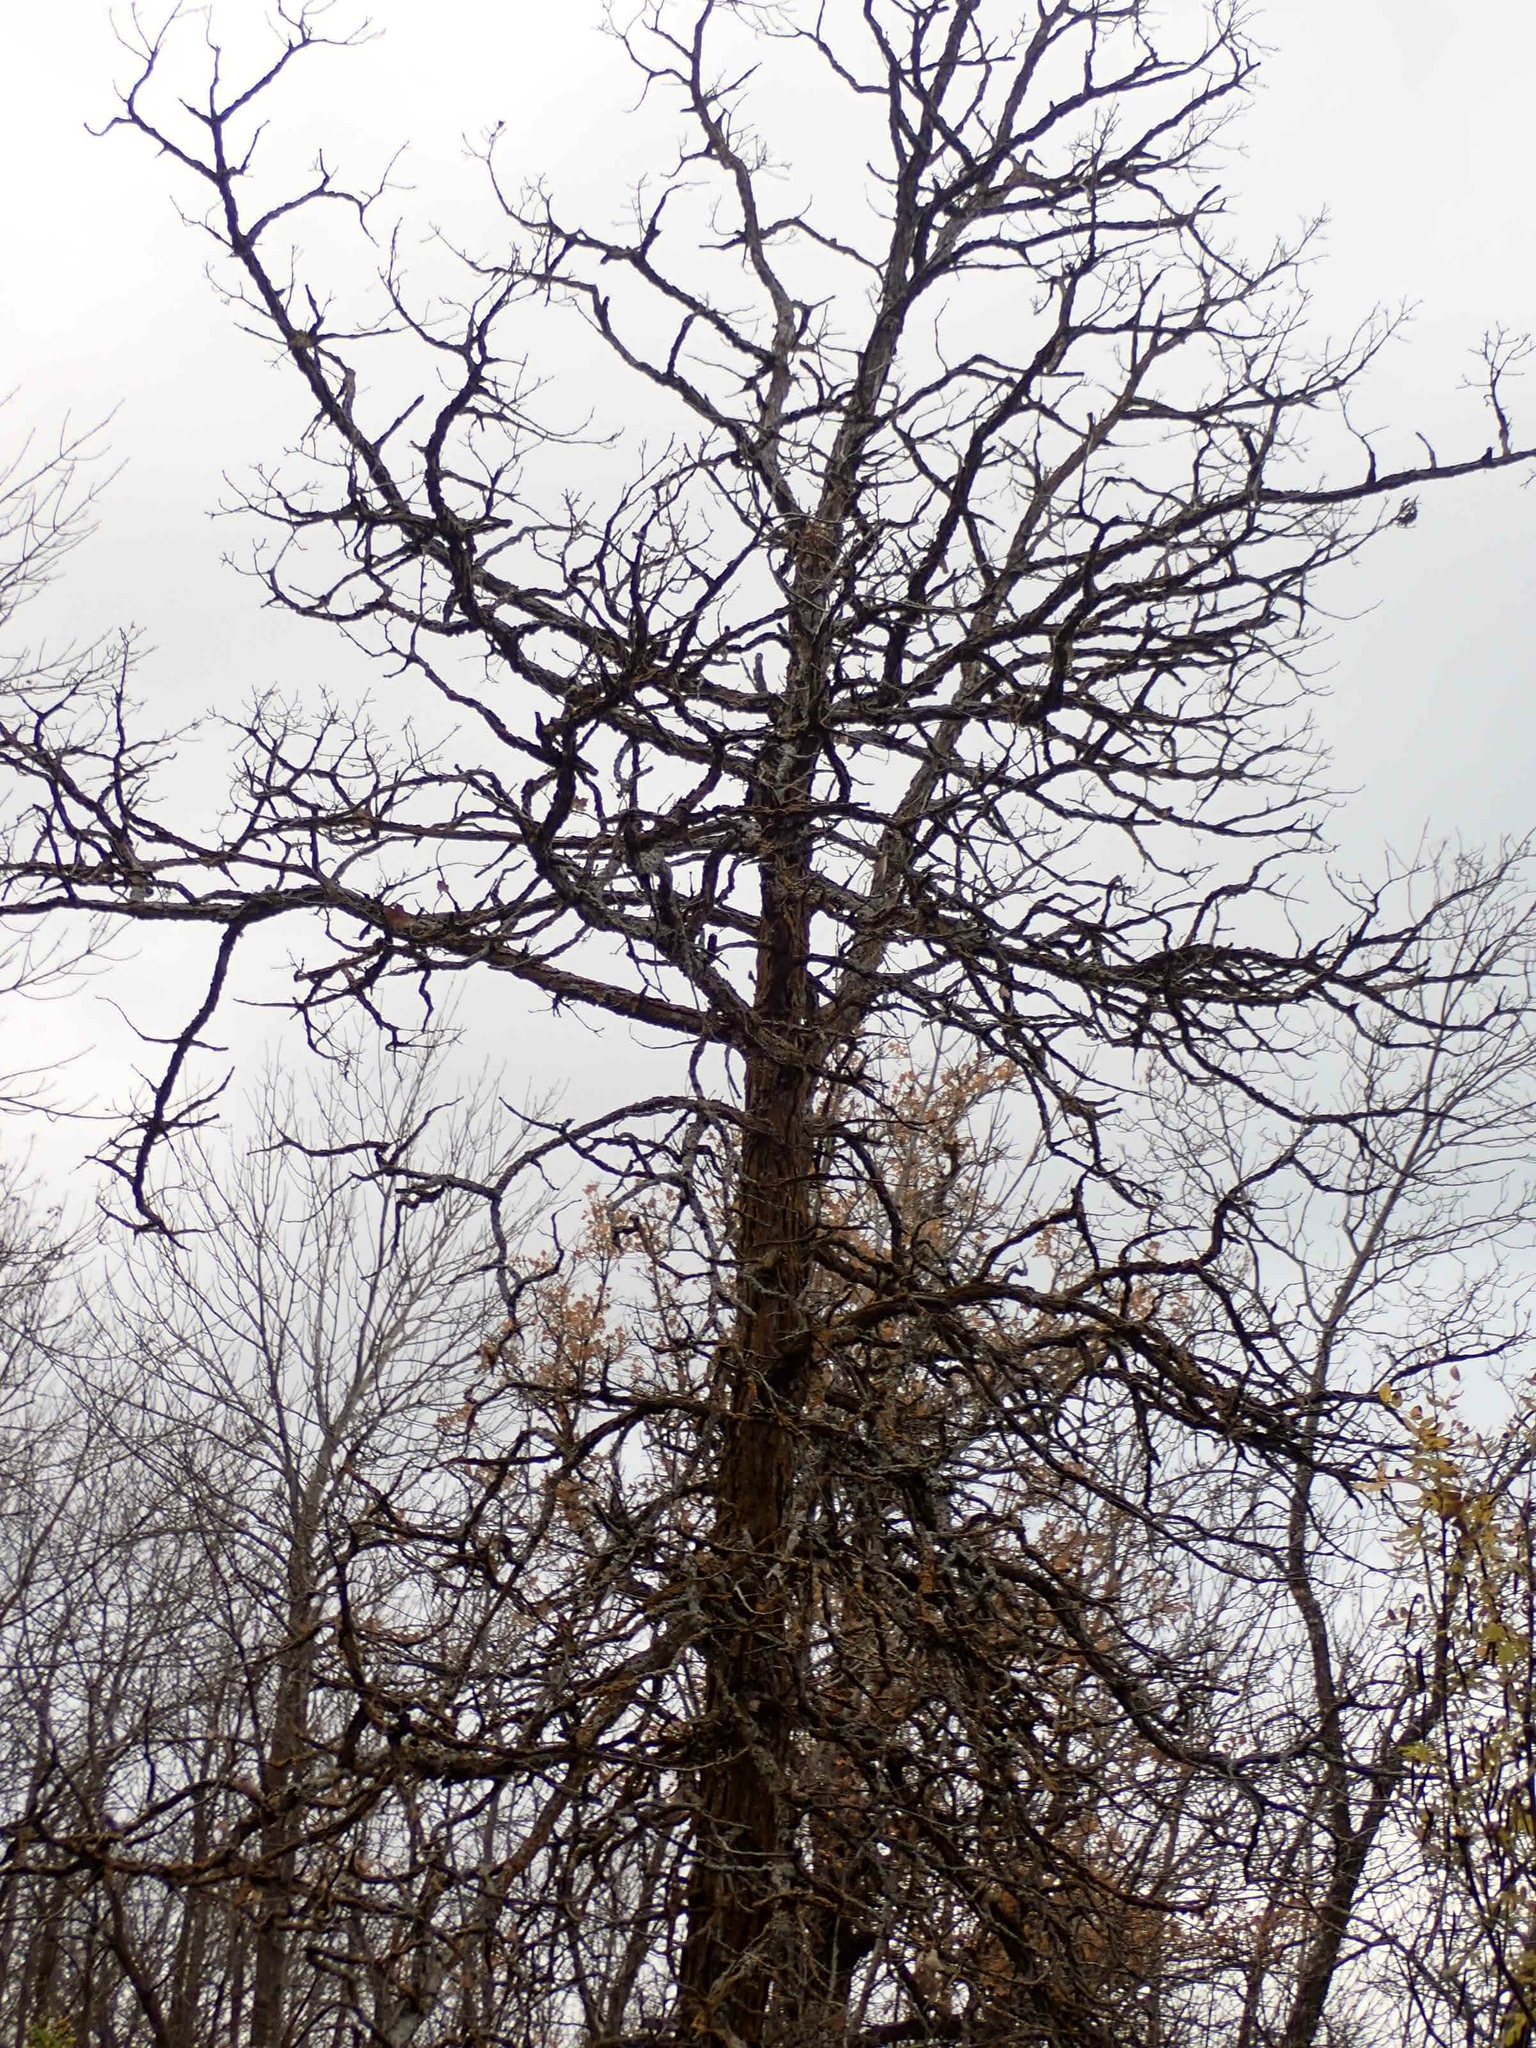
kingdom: Plantae
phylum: Tracheophyta
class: Magnoliopsida
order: Fagales
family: Fagaceae
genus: Quercus
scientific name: Quercus macrocarpa
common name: Bur oak
